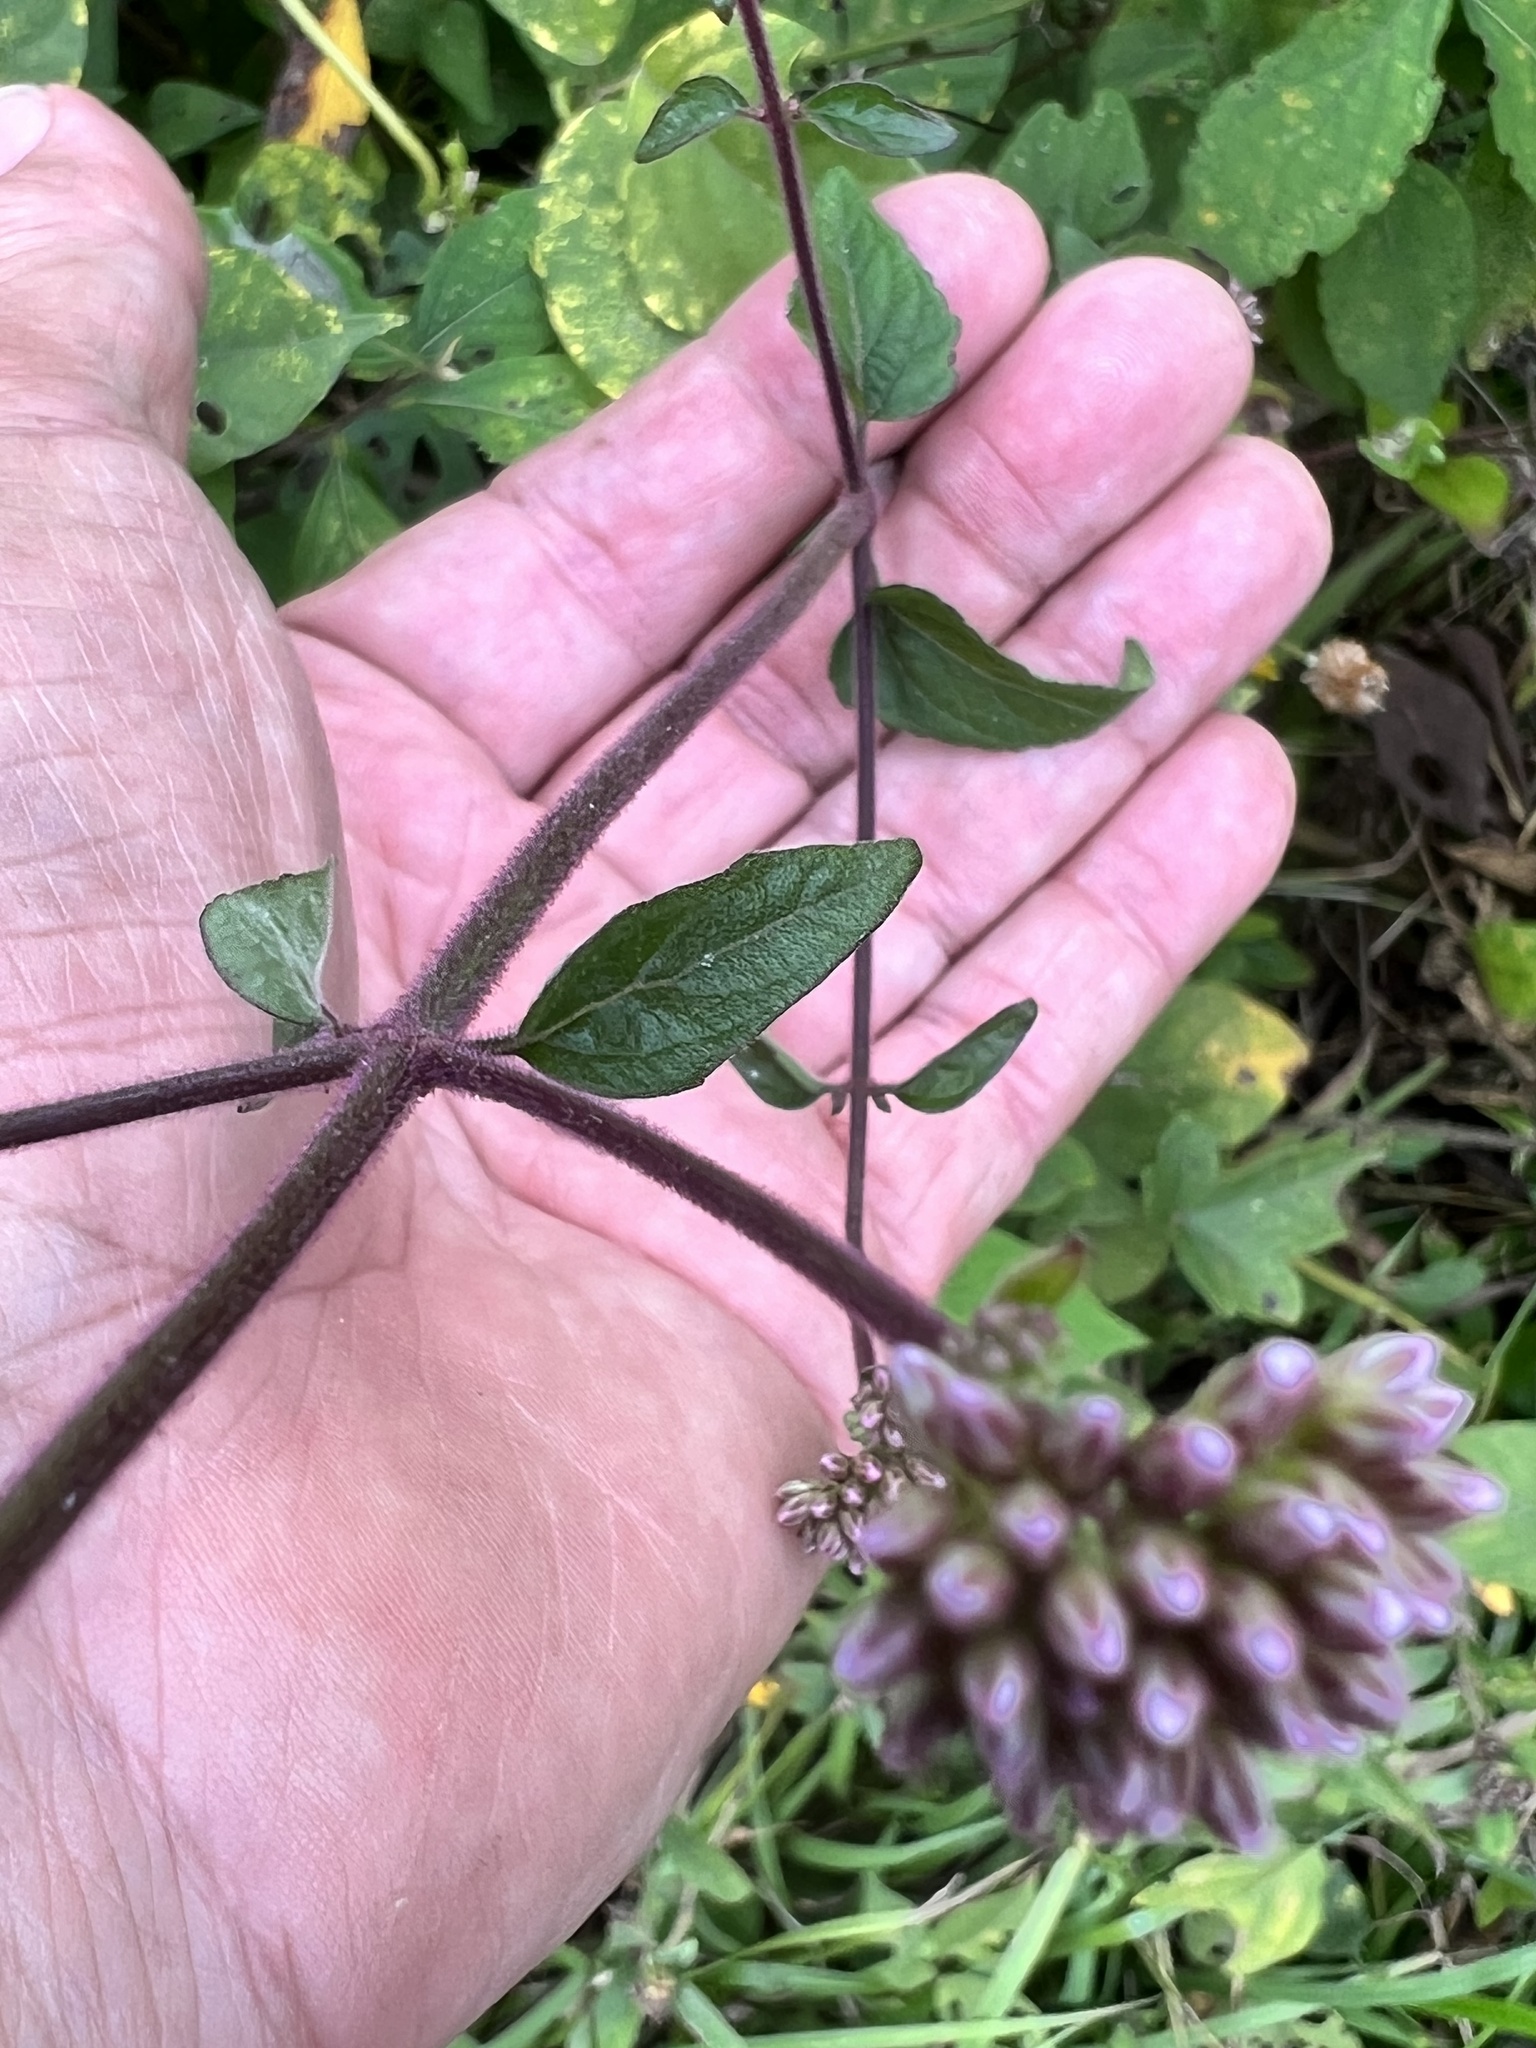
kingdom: Plantae
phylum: Tracheophyta
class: Magnoliopsida
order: Asterales
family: Asteraceae
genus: Ageratum
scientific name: Ageratum corymbosum
